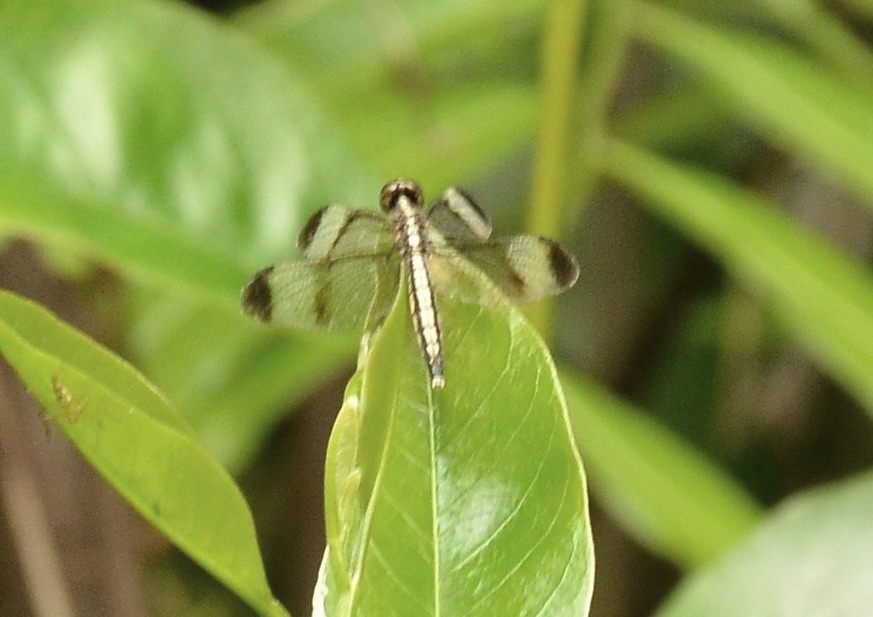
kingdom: Animalia
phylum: Arthropoda
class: Insecta
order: Odonata
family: Libellulidae
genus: Neurothemis
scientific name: Neurothemis tullia
